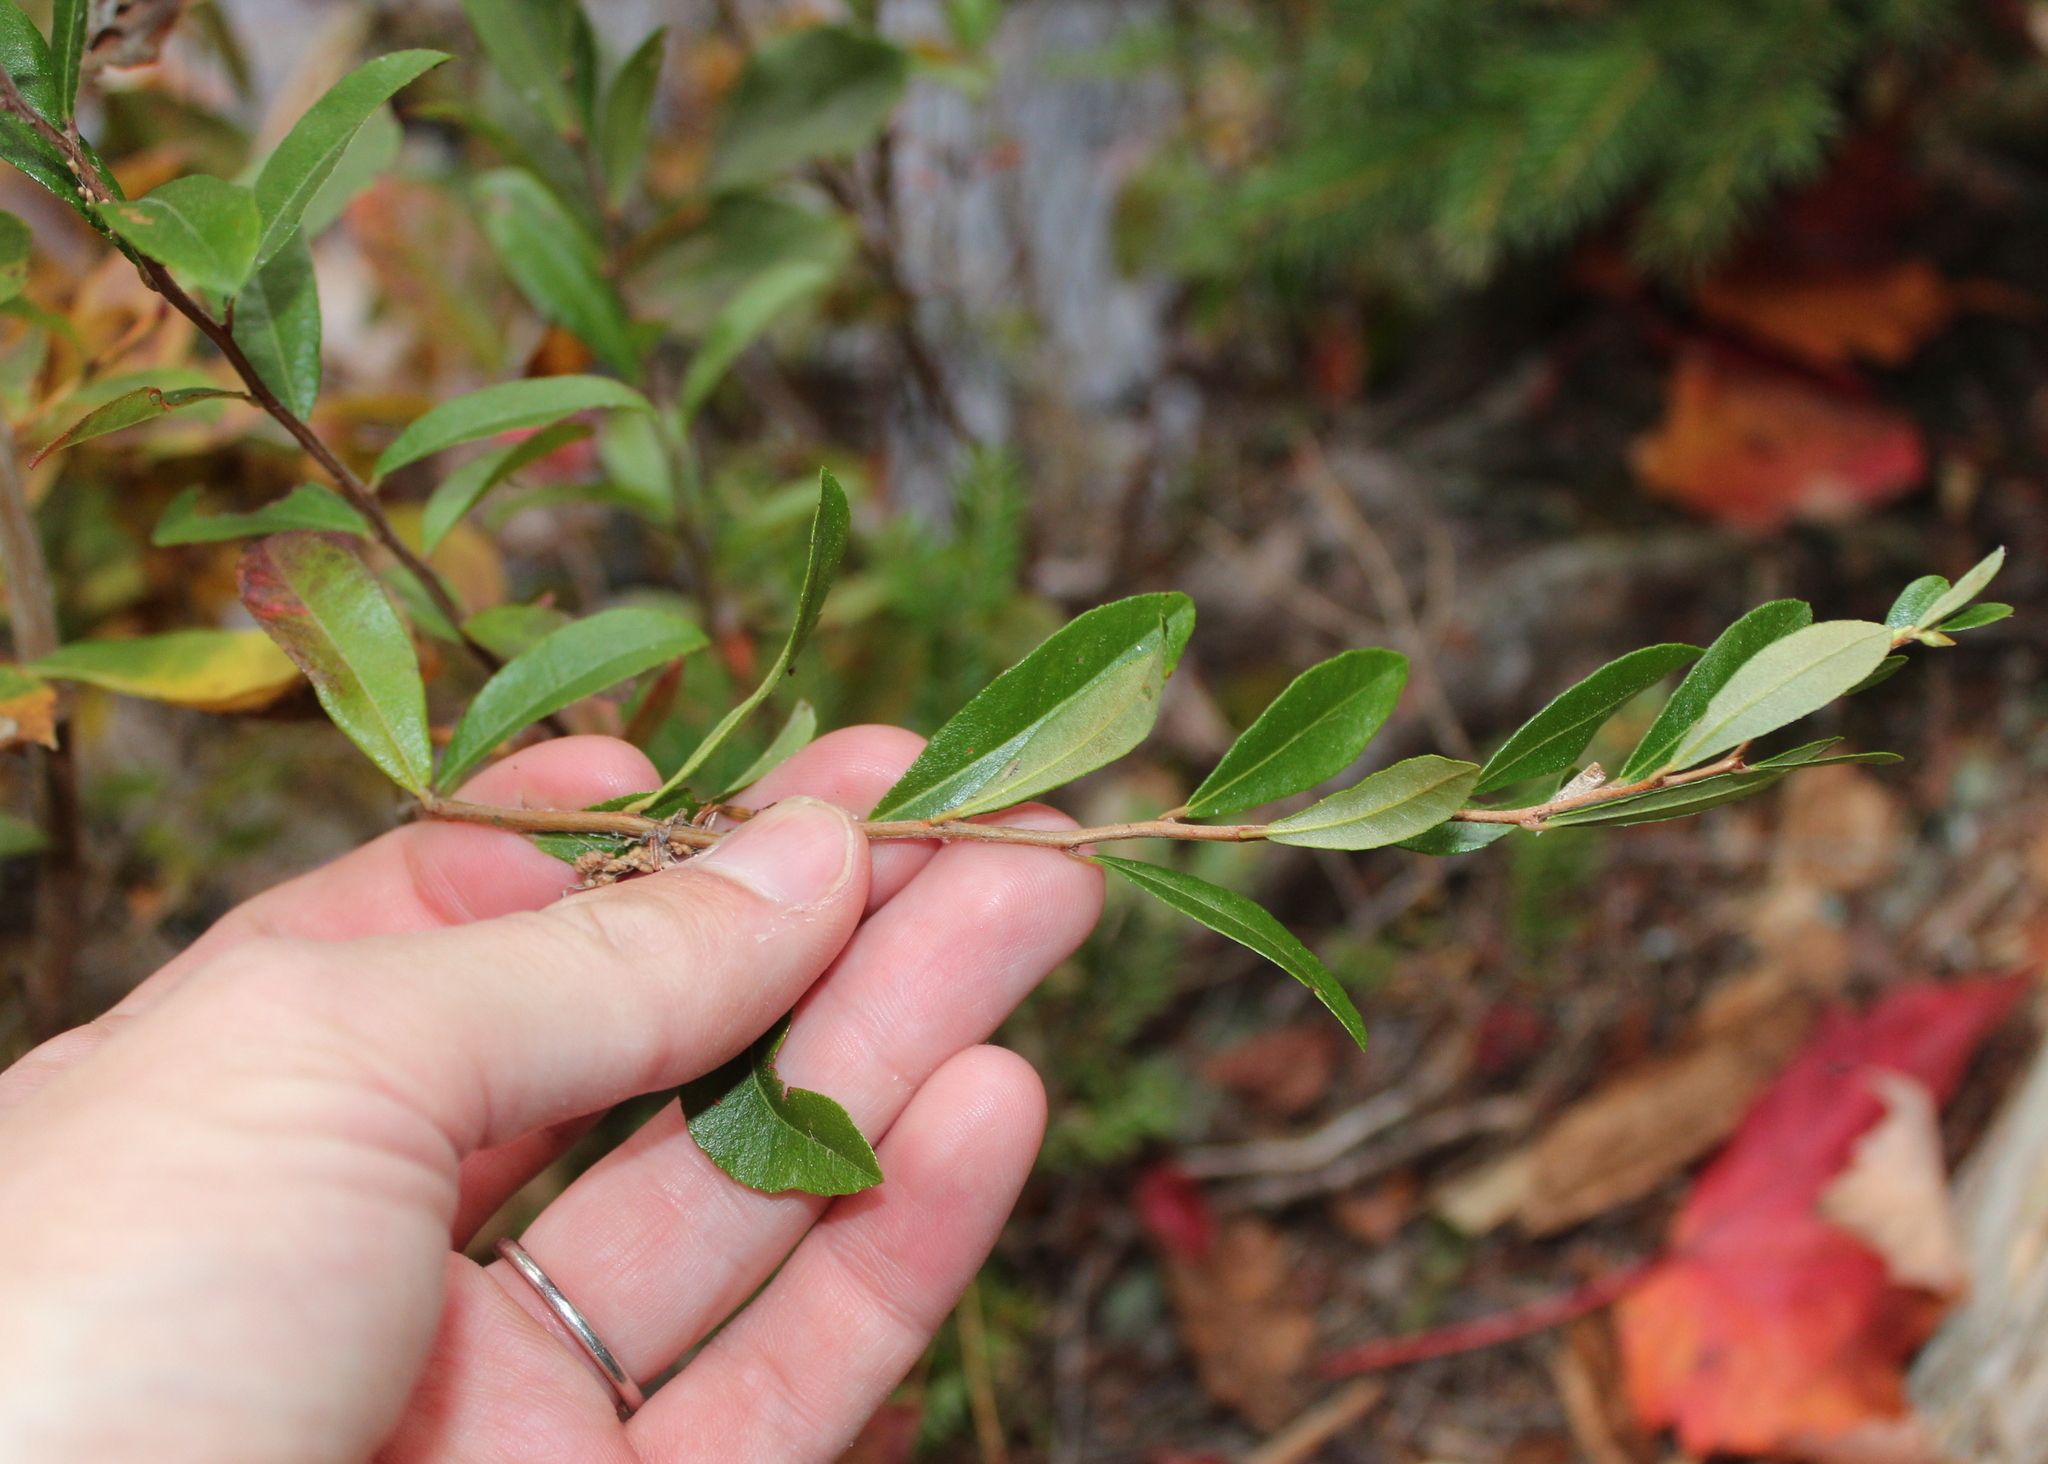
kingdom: Plantae
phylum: Tracheophyta
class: Magnoliopsida
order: Ericales
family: Ericaceae
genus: Chamaedaphne
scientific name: Chamaedaphne calyculata
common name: Leatherleaf
